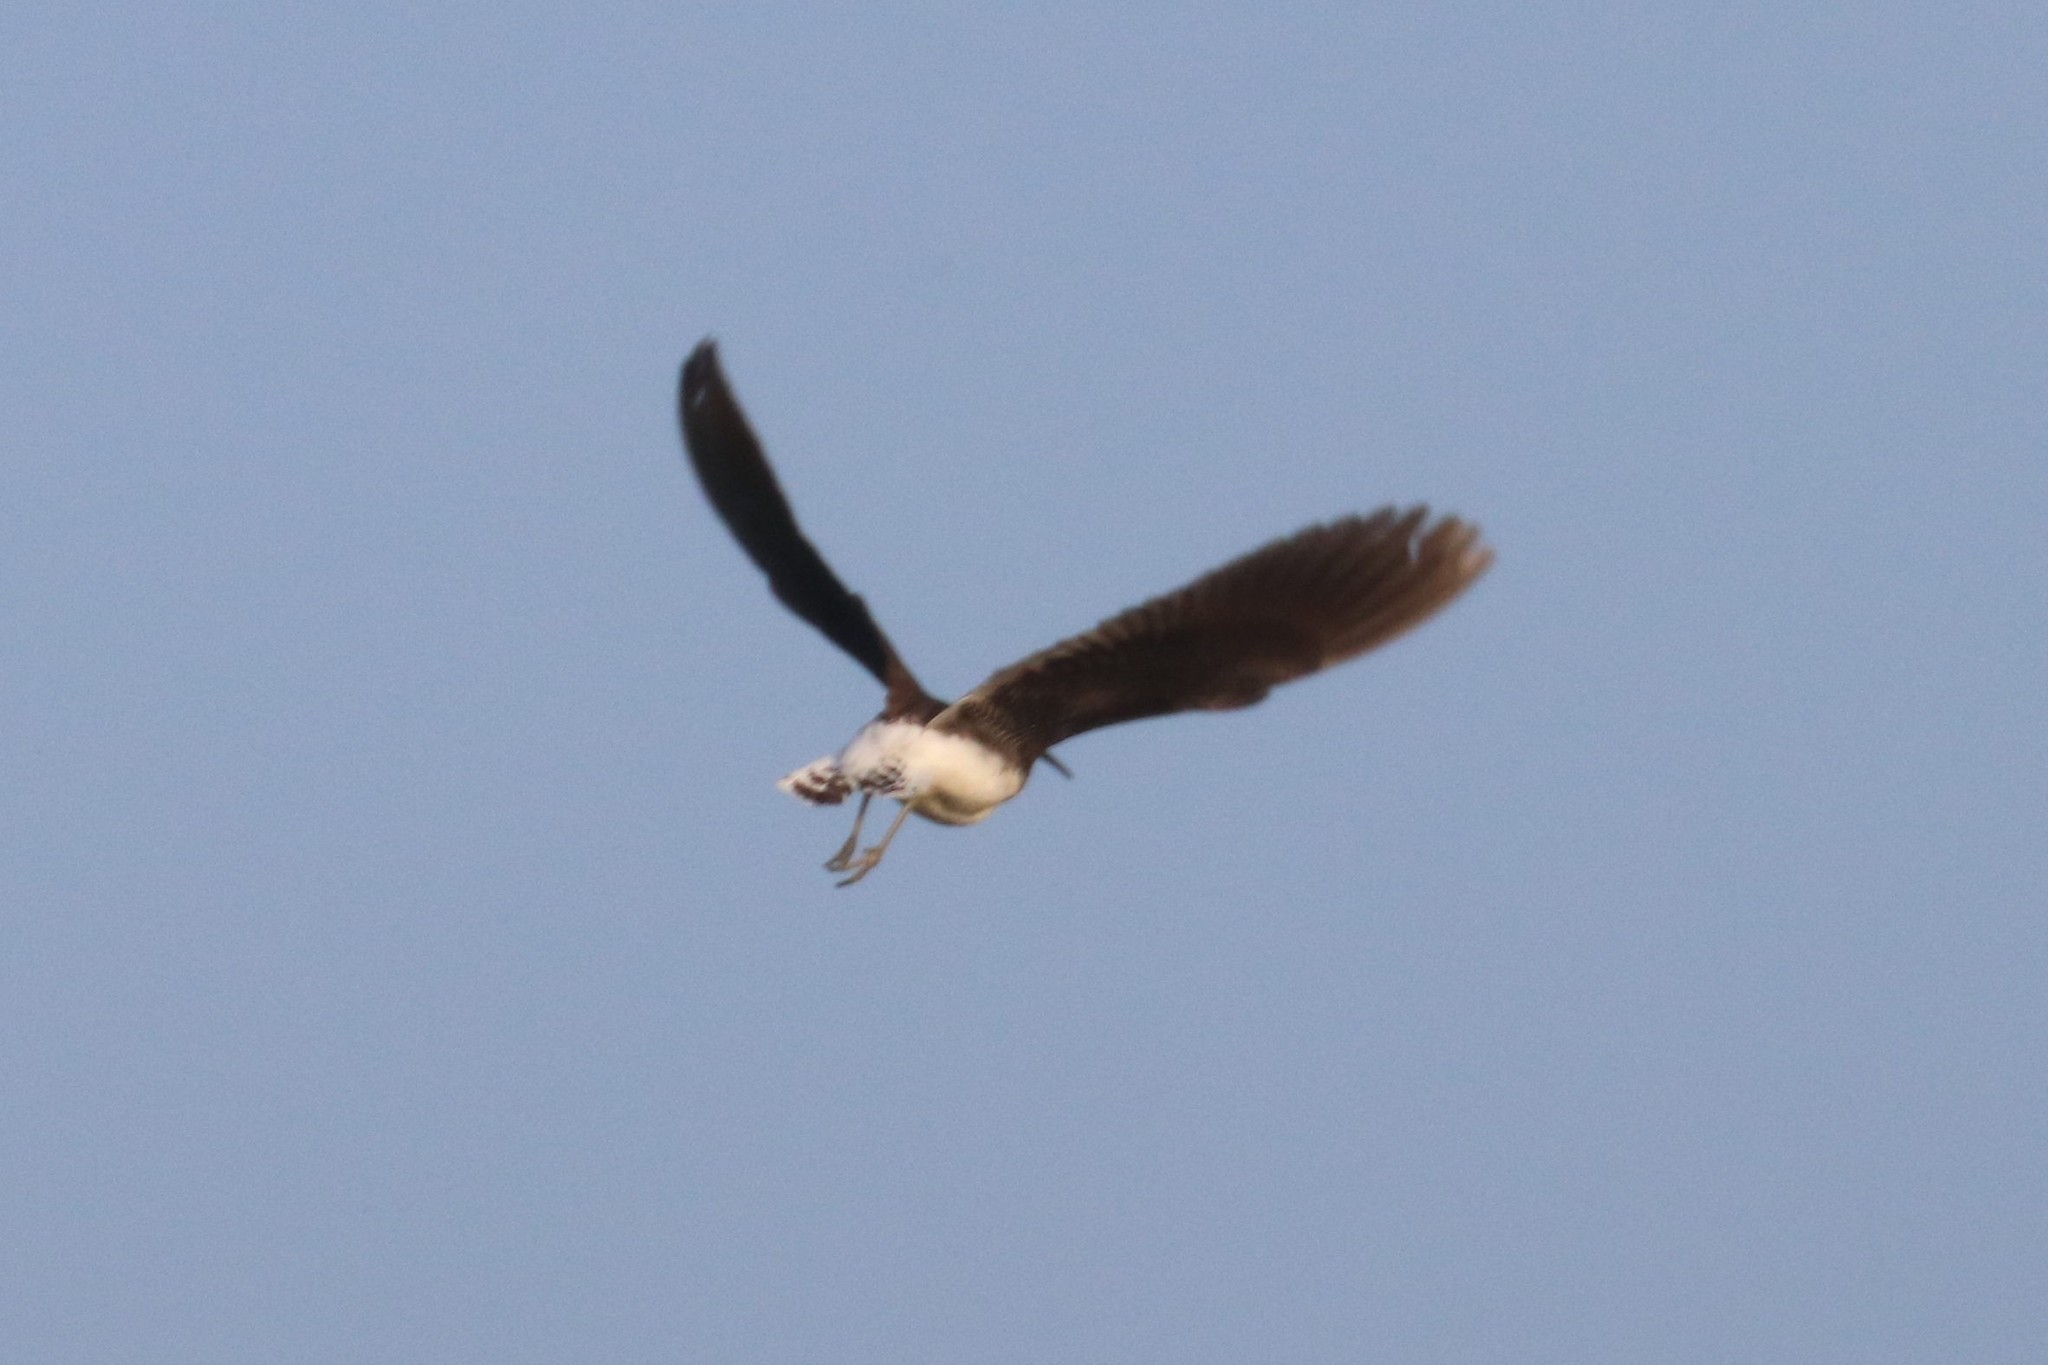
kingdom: Animalia
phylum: Chordata
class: Aves
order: Charadriiformes
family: Scolopacidae
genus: Tringa
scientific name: Tringa ochropus
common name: Green sandpiper
